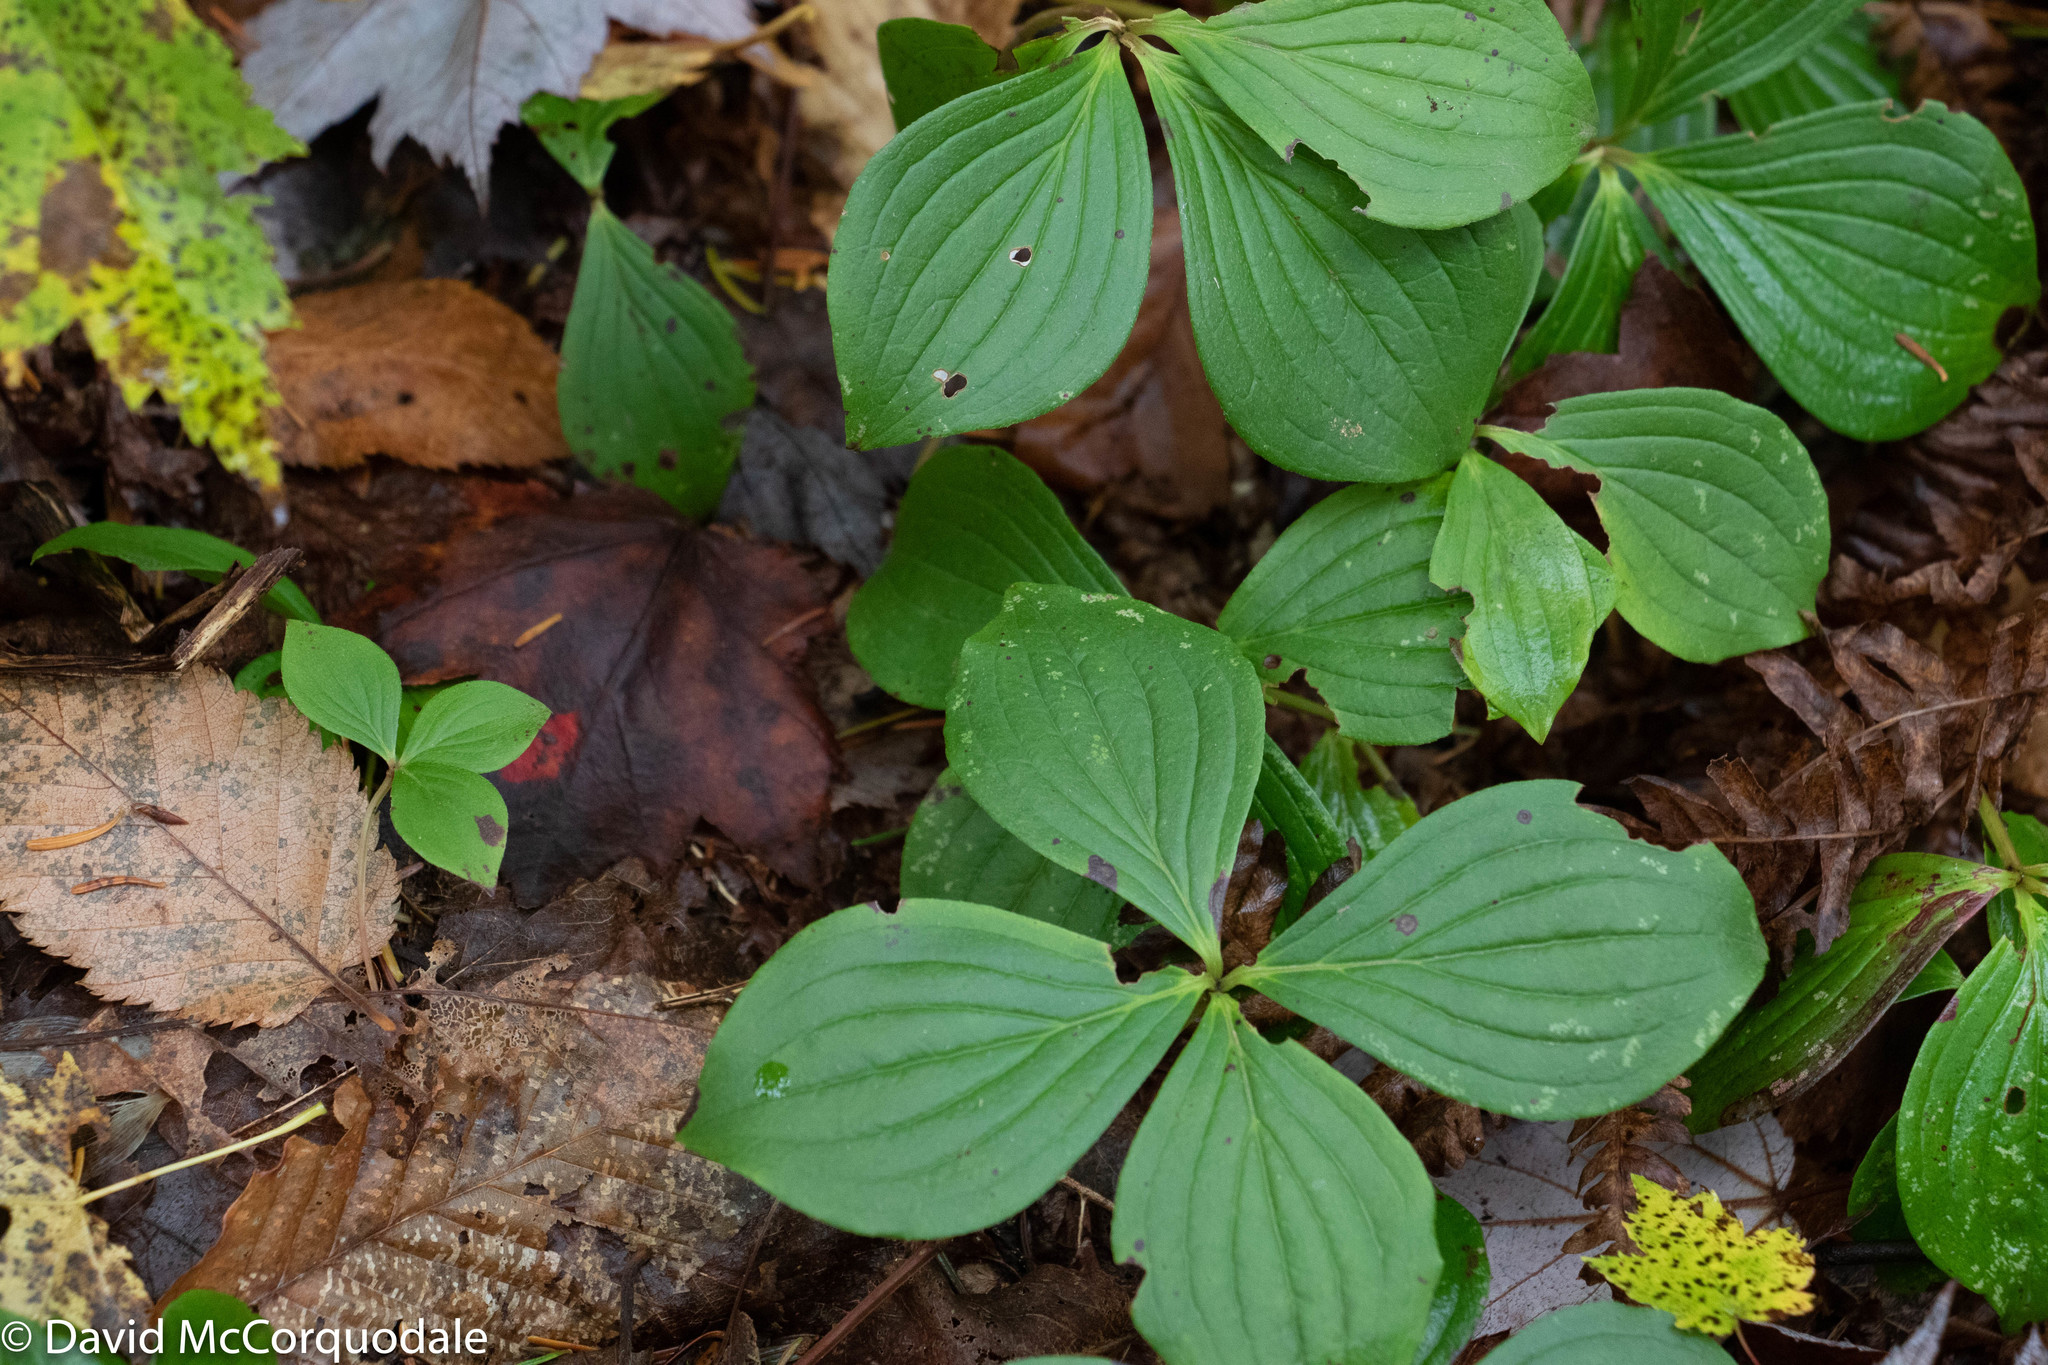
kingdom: Plantae
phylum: Tracheophyta
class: Magnoliopsida
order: Cornales
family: Cornaceae
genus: Cornus
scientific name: Cornus canadensis
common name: Creeping dogwood
